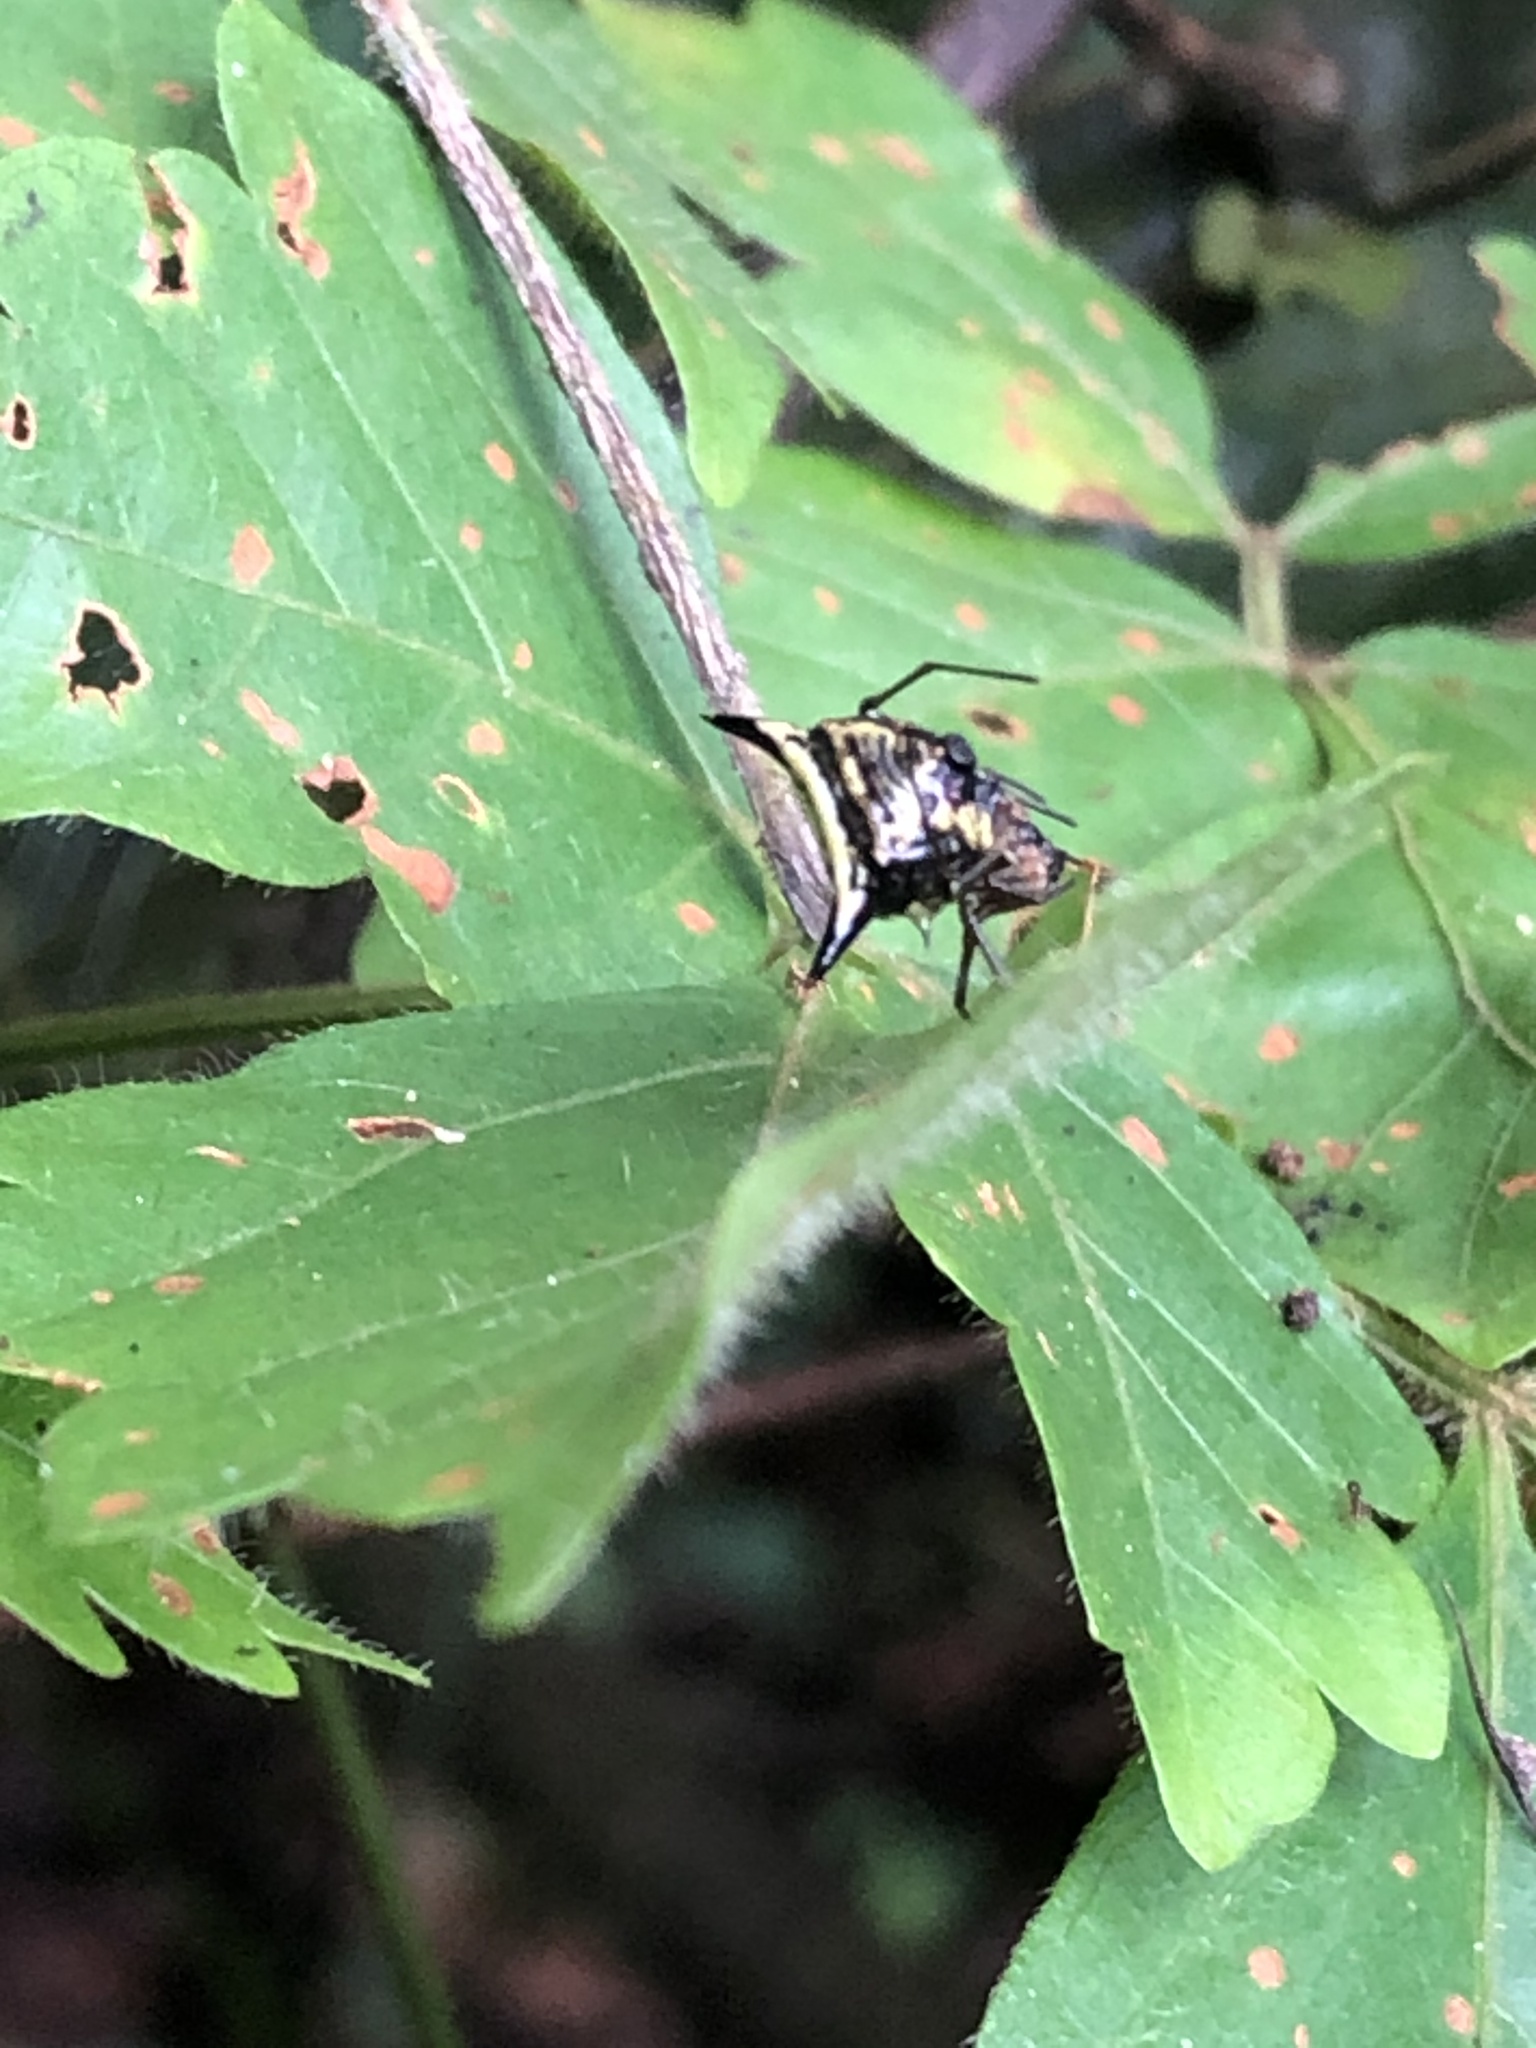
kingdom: Animalia
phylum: Arthropoda
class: Arachnida
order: Araneae
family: Araneidae
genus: Micrathena
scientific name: Micrathena triangularispinosa
